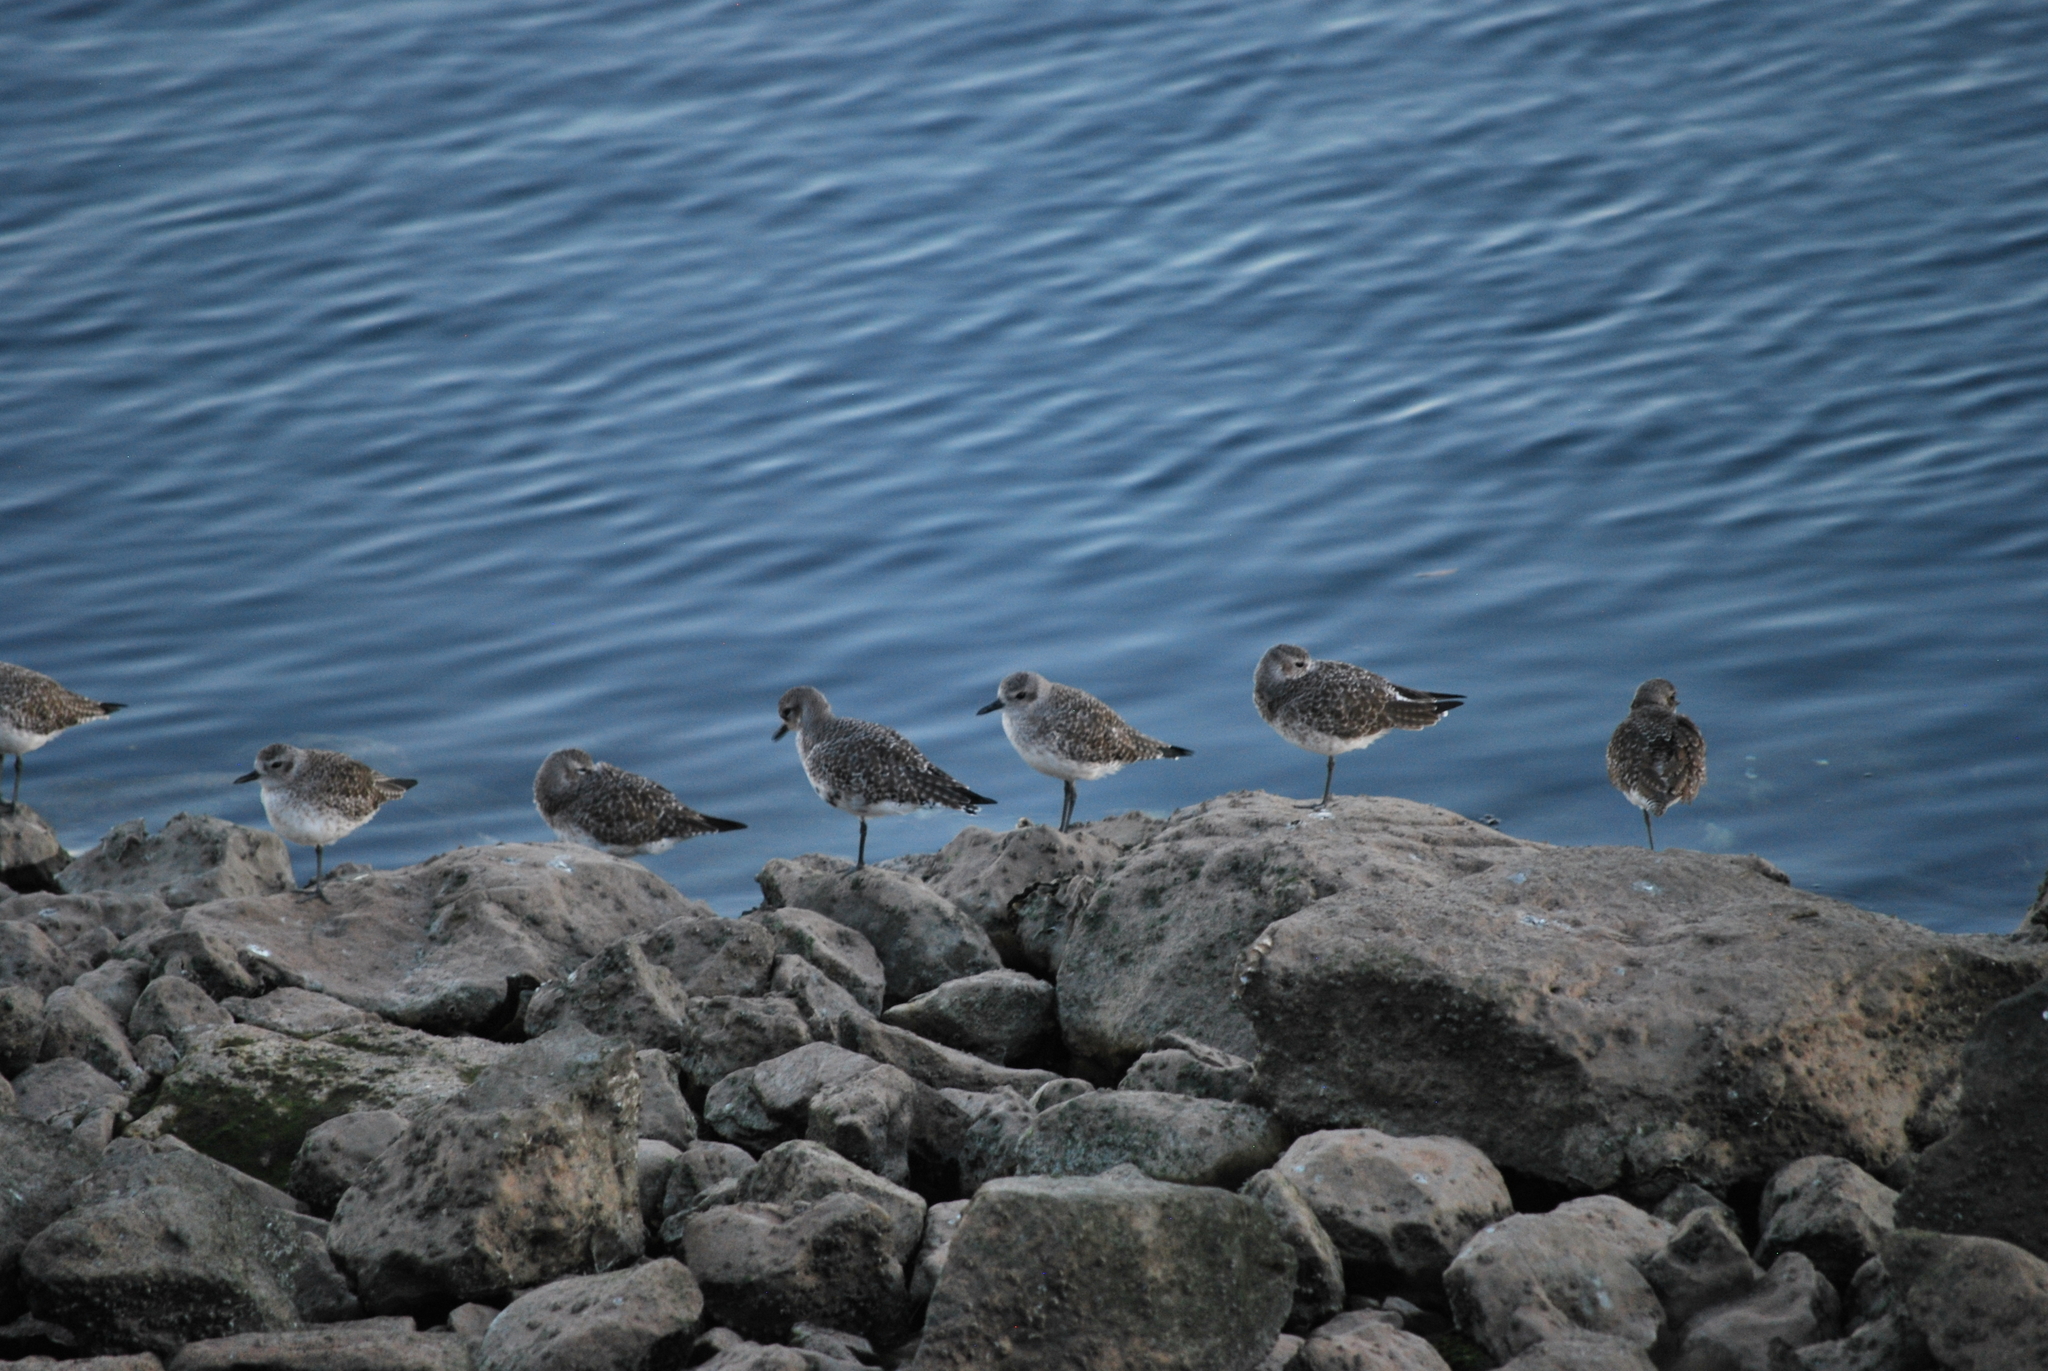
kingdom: Animalia
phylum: Chordata
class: Aves
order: Charadriiformes
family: Charadriidae
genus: Pluvialis
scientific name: Pluvialis squatarola
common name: Grey plover
